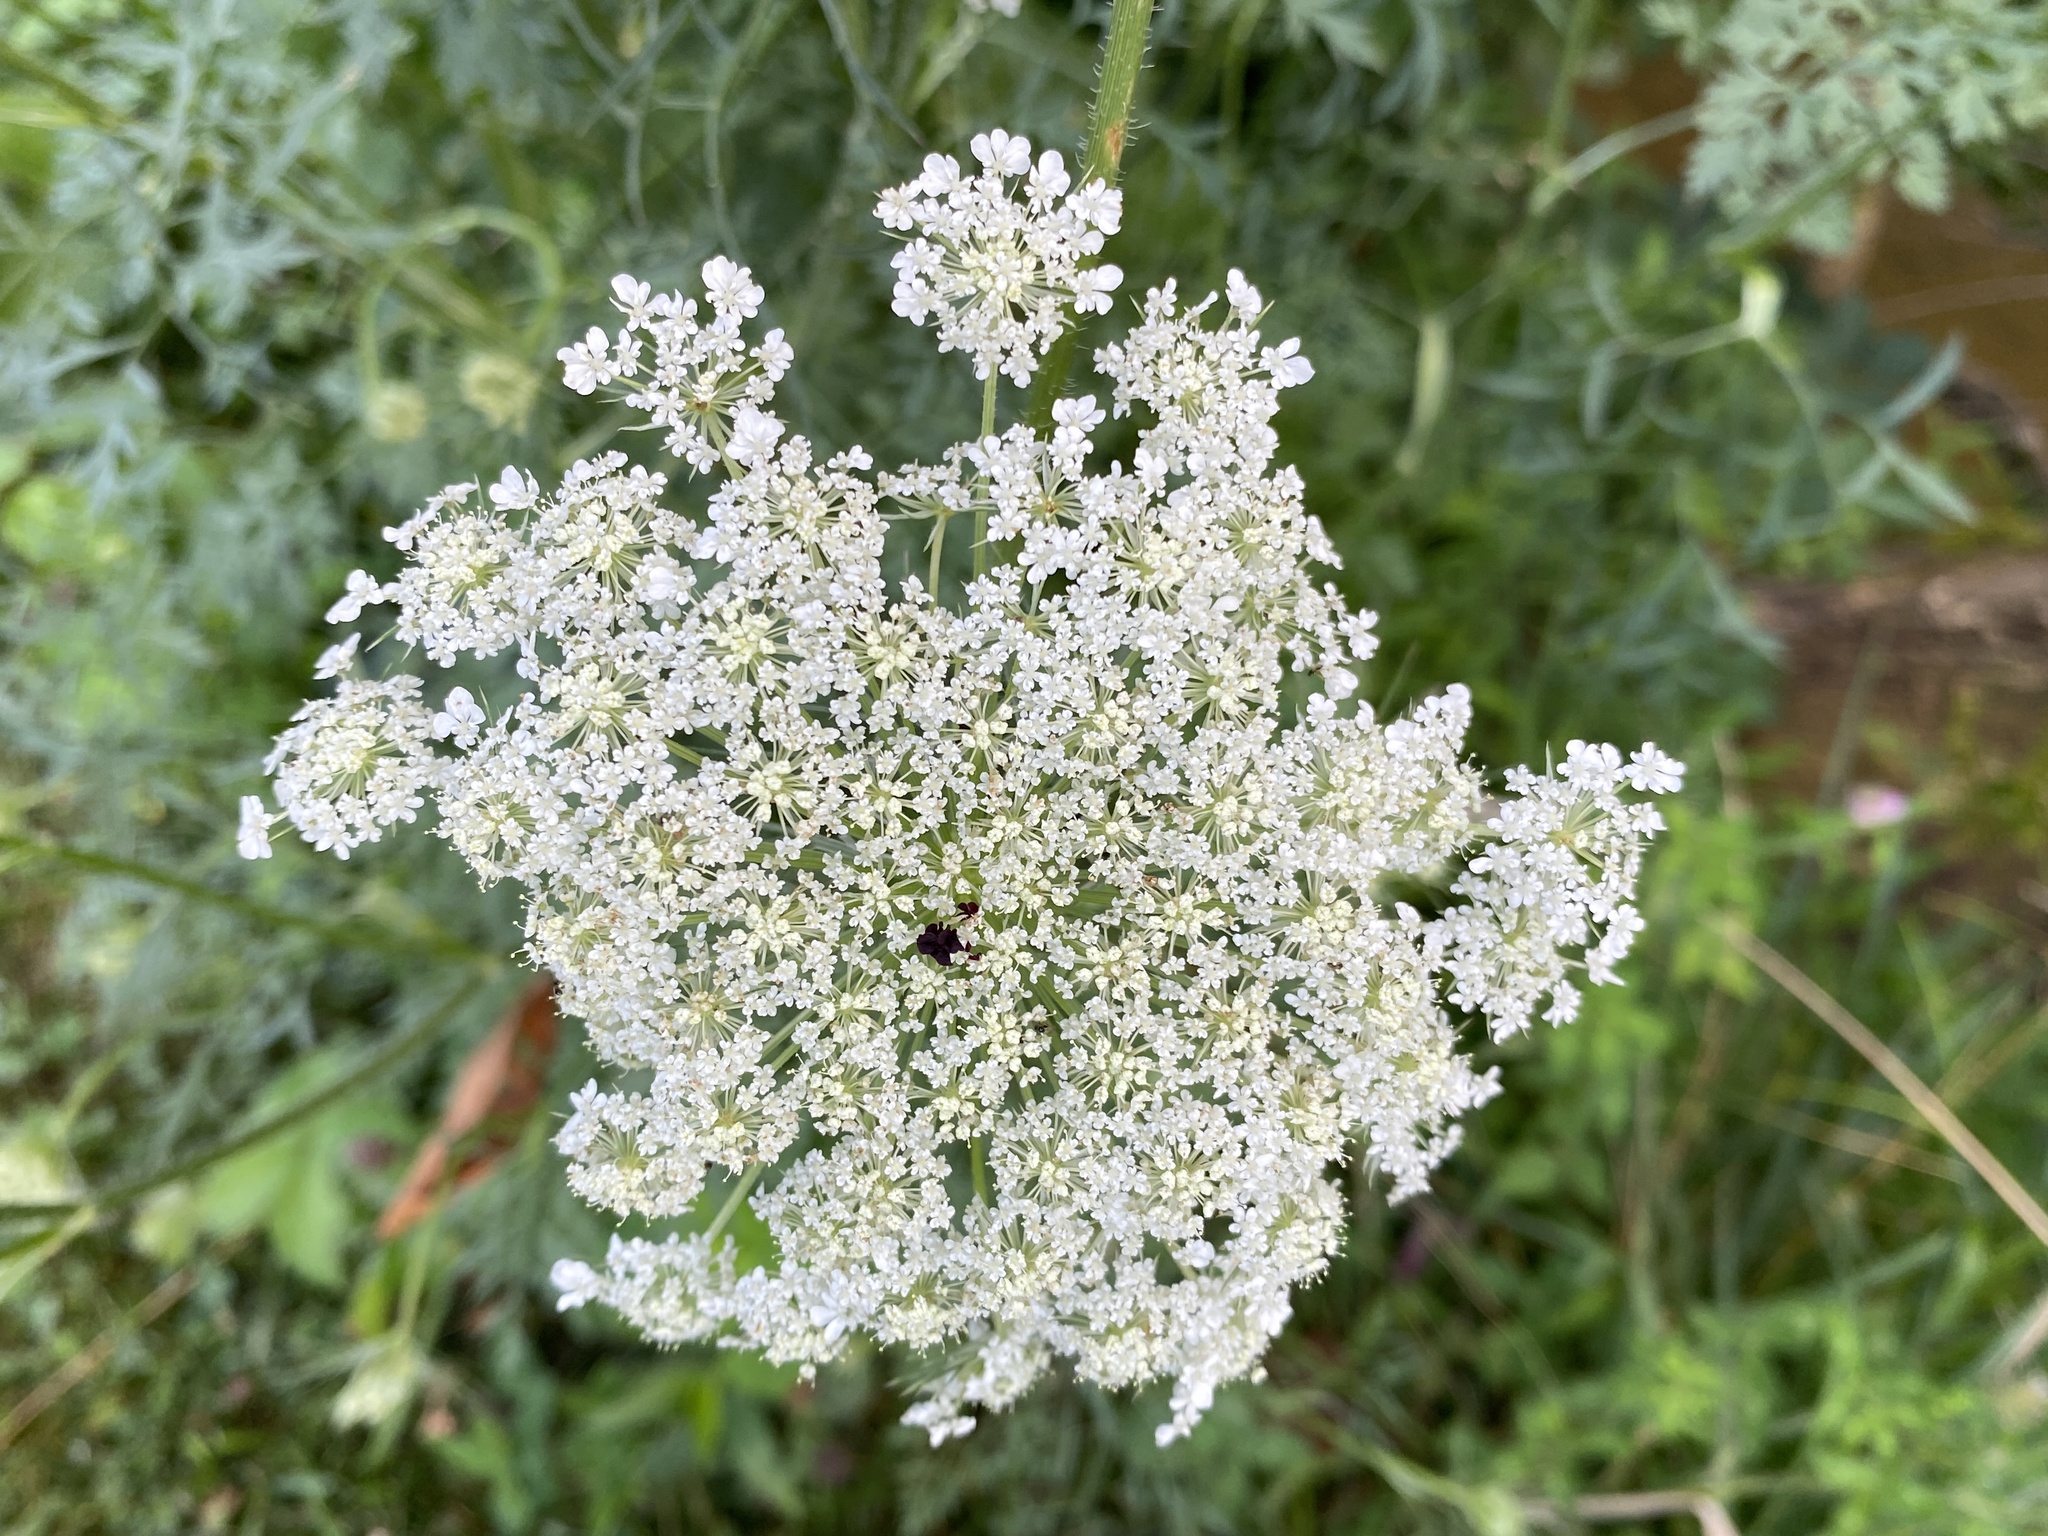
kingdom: Plantae
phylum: Tracheophyta
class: Magnoliopsida
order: Apiales
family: Apiaceae
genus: Daucus
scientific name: Daucus carota
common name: Wild carrot
